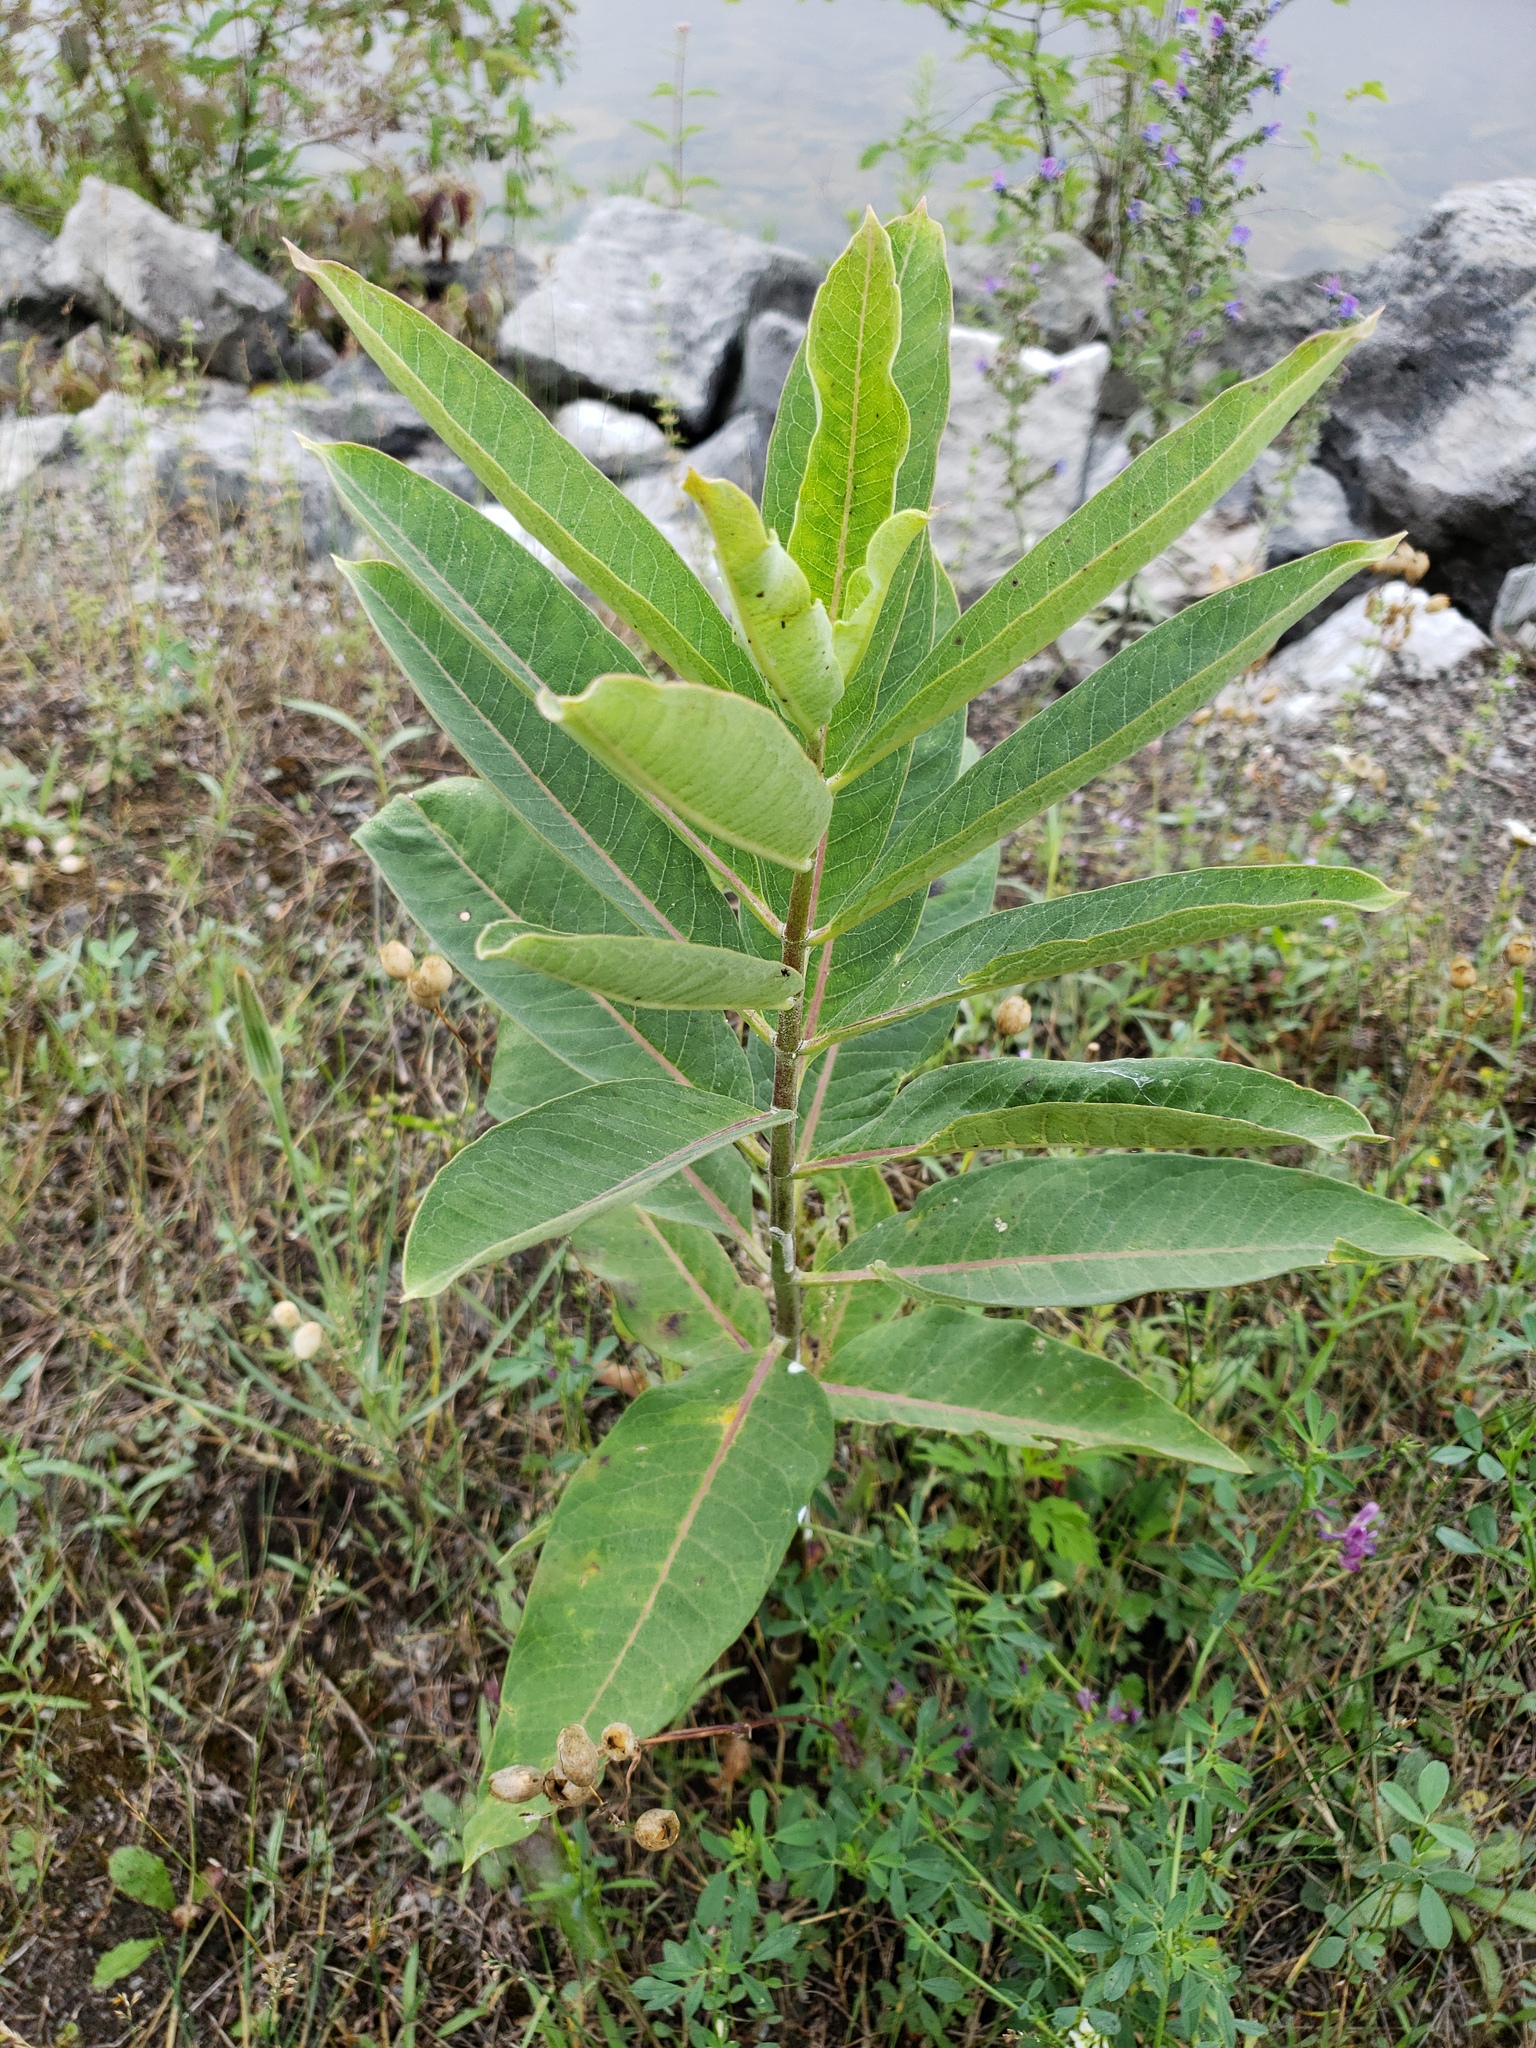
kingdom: Plantae
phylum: Tracheophyta
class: Magnoliopsida
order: Gentianales
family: Apocynaceae
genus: Asclepias
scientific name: Asclepias syriaca
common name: Common milkweed
